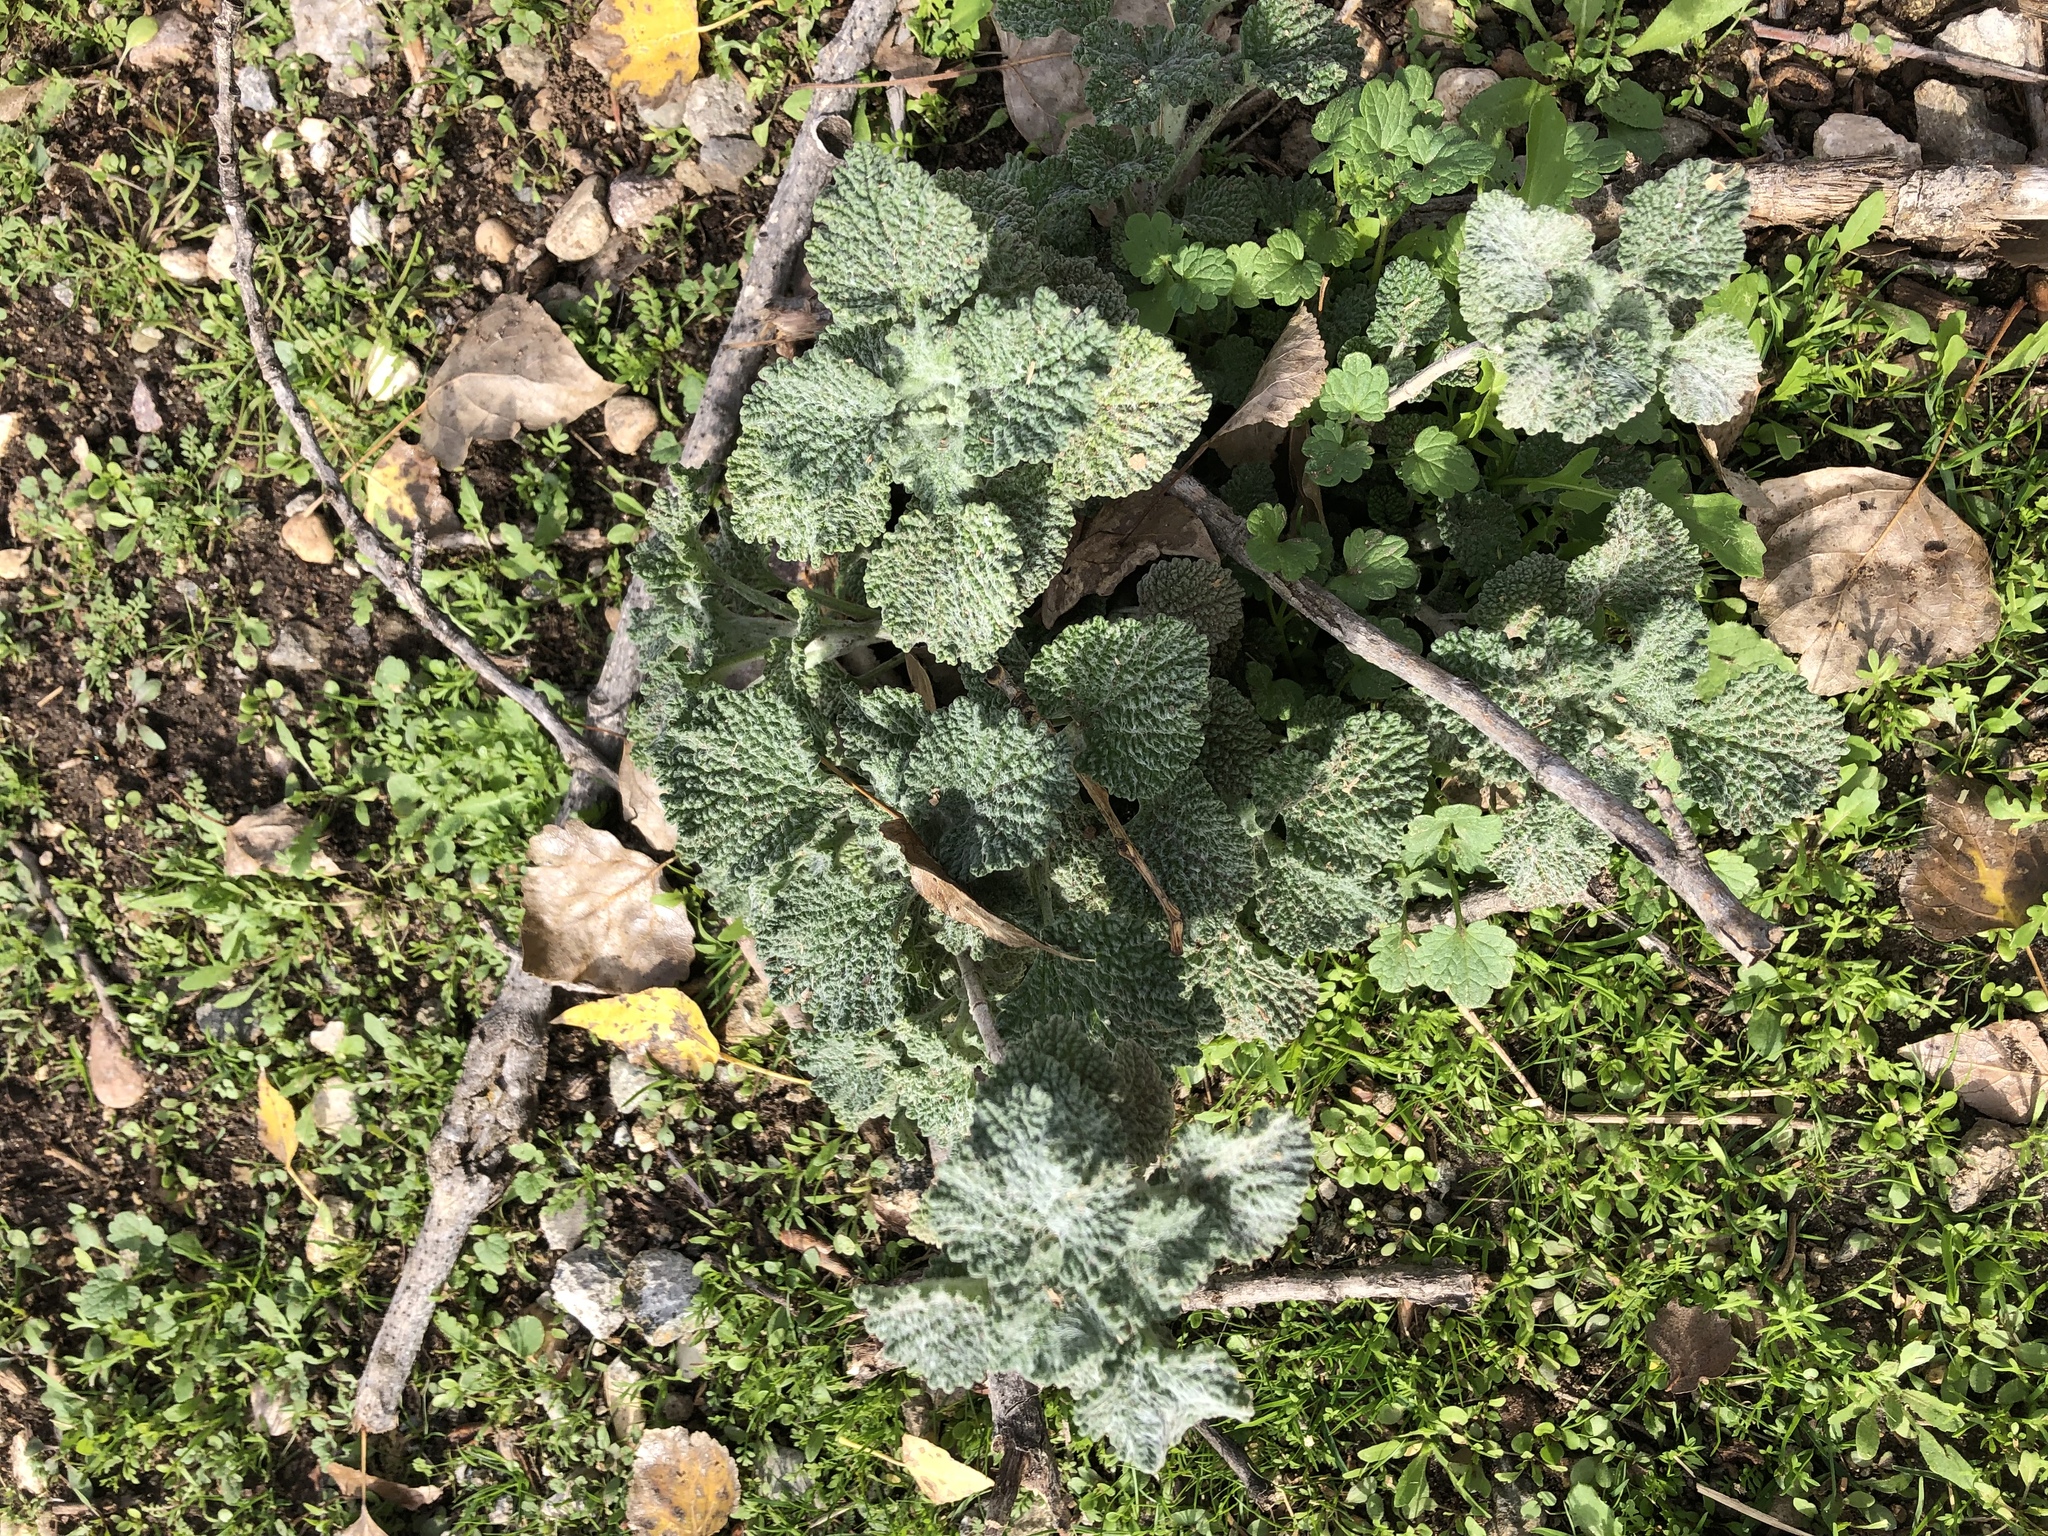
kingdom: Plantae
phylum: Tracheophyta
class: Magnoliopsida
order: Lamiales
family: Lamiaceae
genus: Marrubium
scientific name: Marrubium vulgare
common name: Horehound
